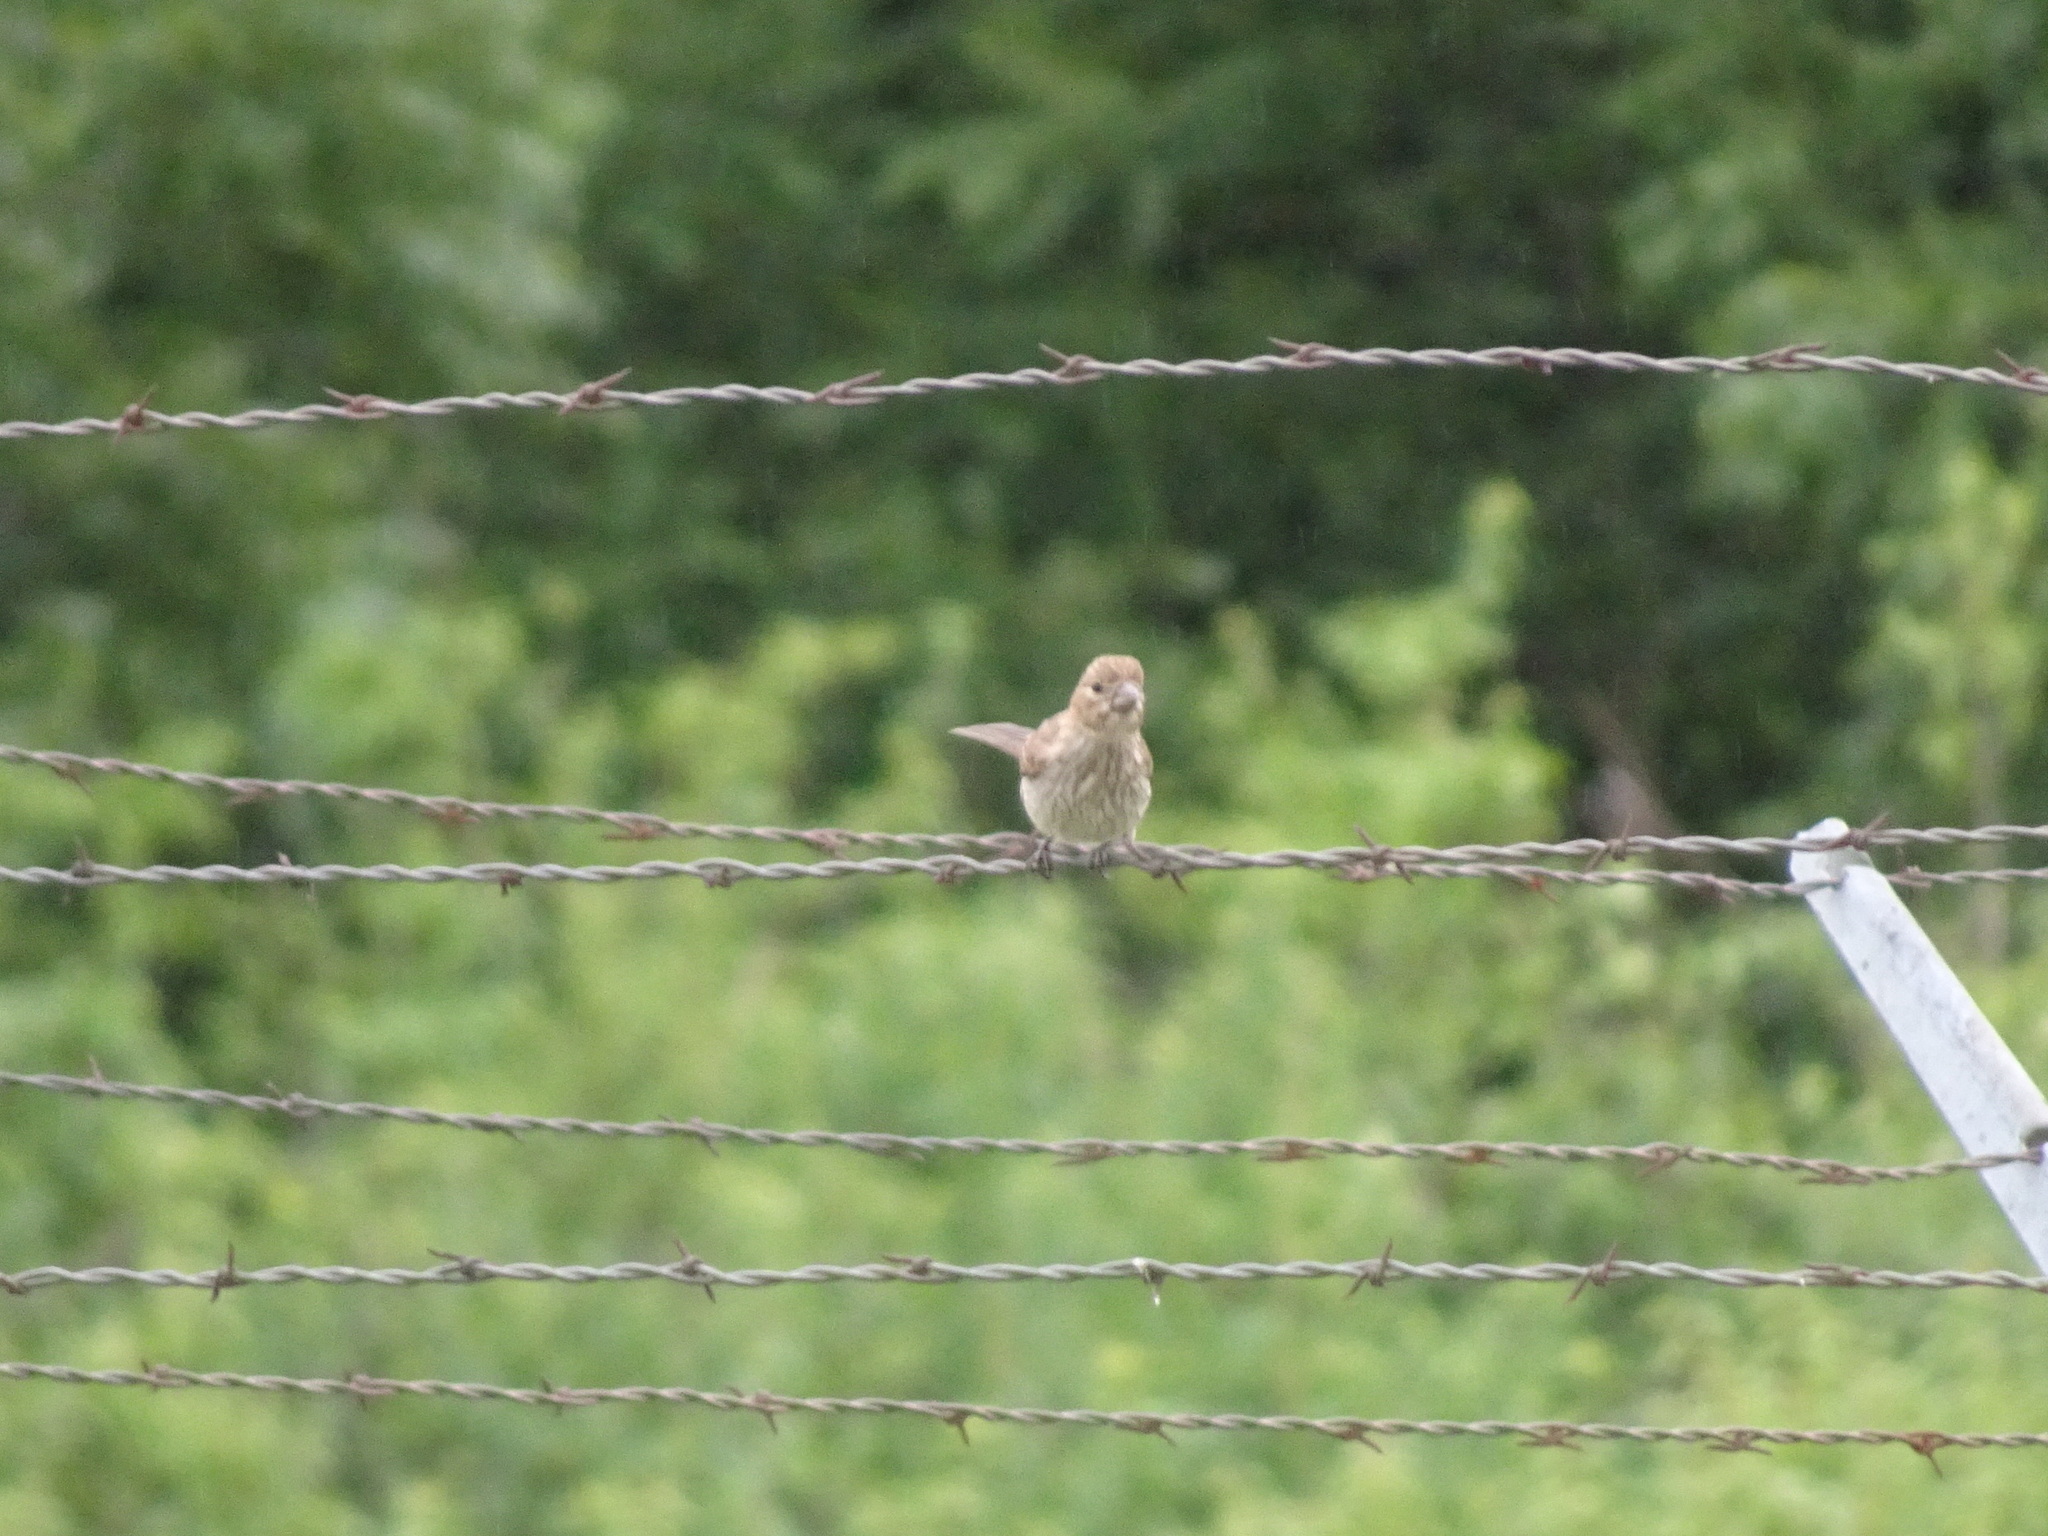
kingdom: Animalia
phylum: Chordata
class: Aves
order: Passeriformes
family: Fringillidae
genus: Haemorhous
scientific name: Haemorhous mexicanus
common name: House finch
